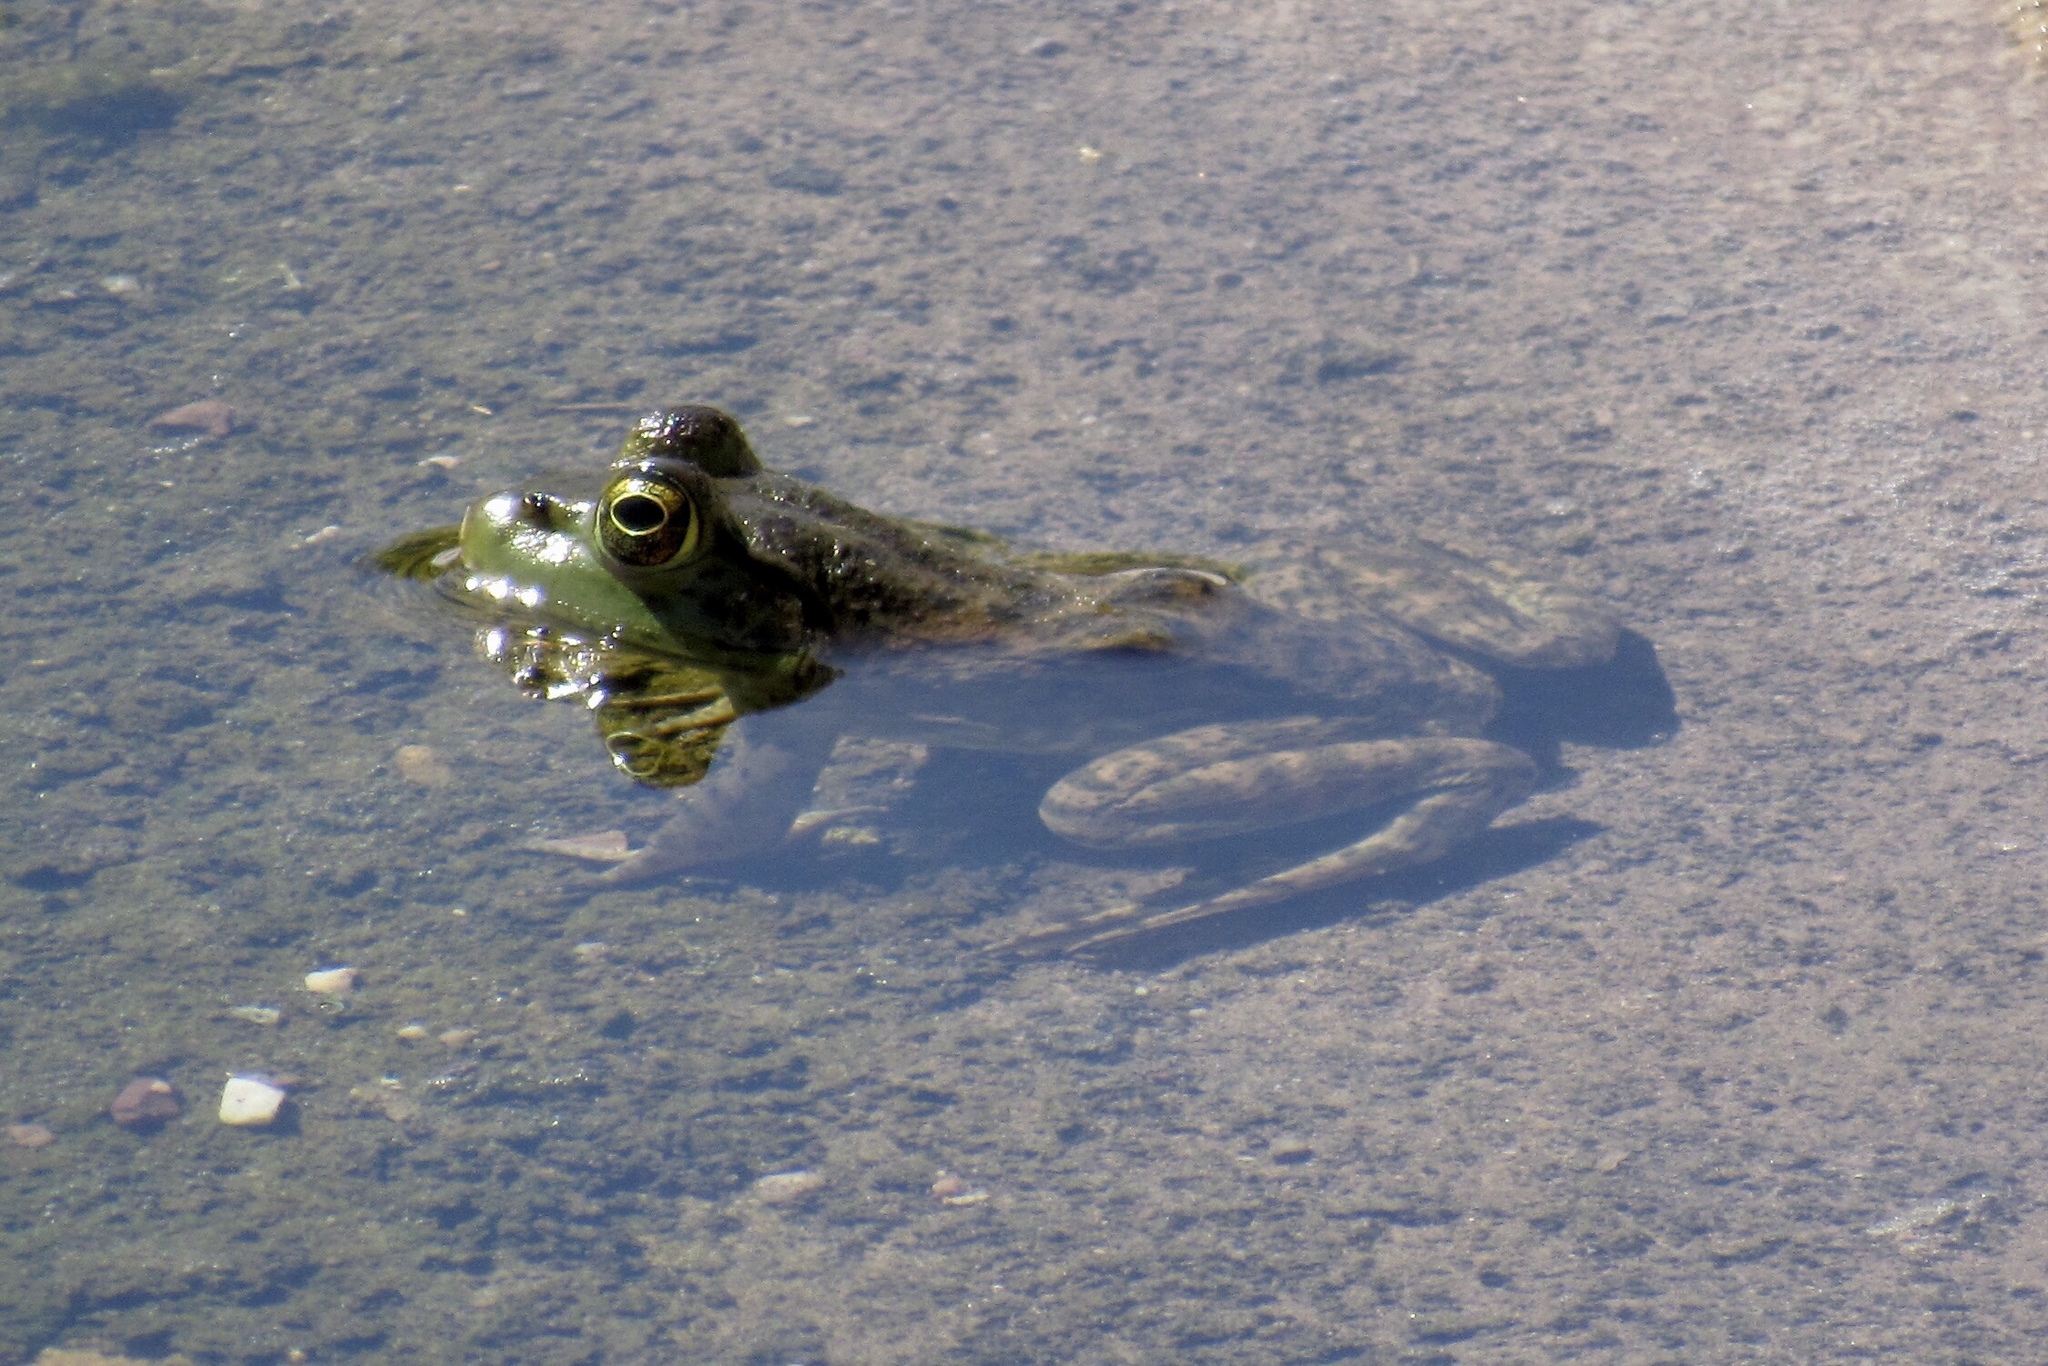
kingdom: Animalia
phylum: Chordata
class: Amphibia
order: Anura
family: Ranidae
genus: Lithobates
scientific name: Lithobates catesbeianus
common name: American bullfrog
